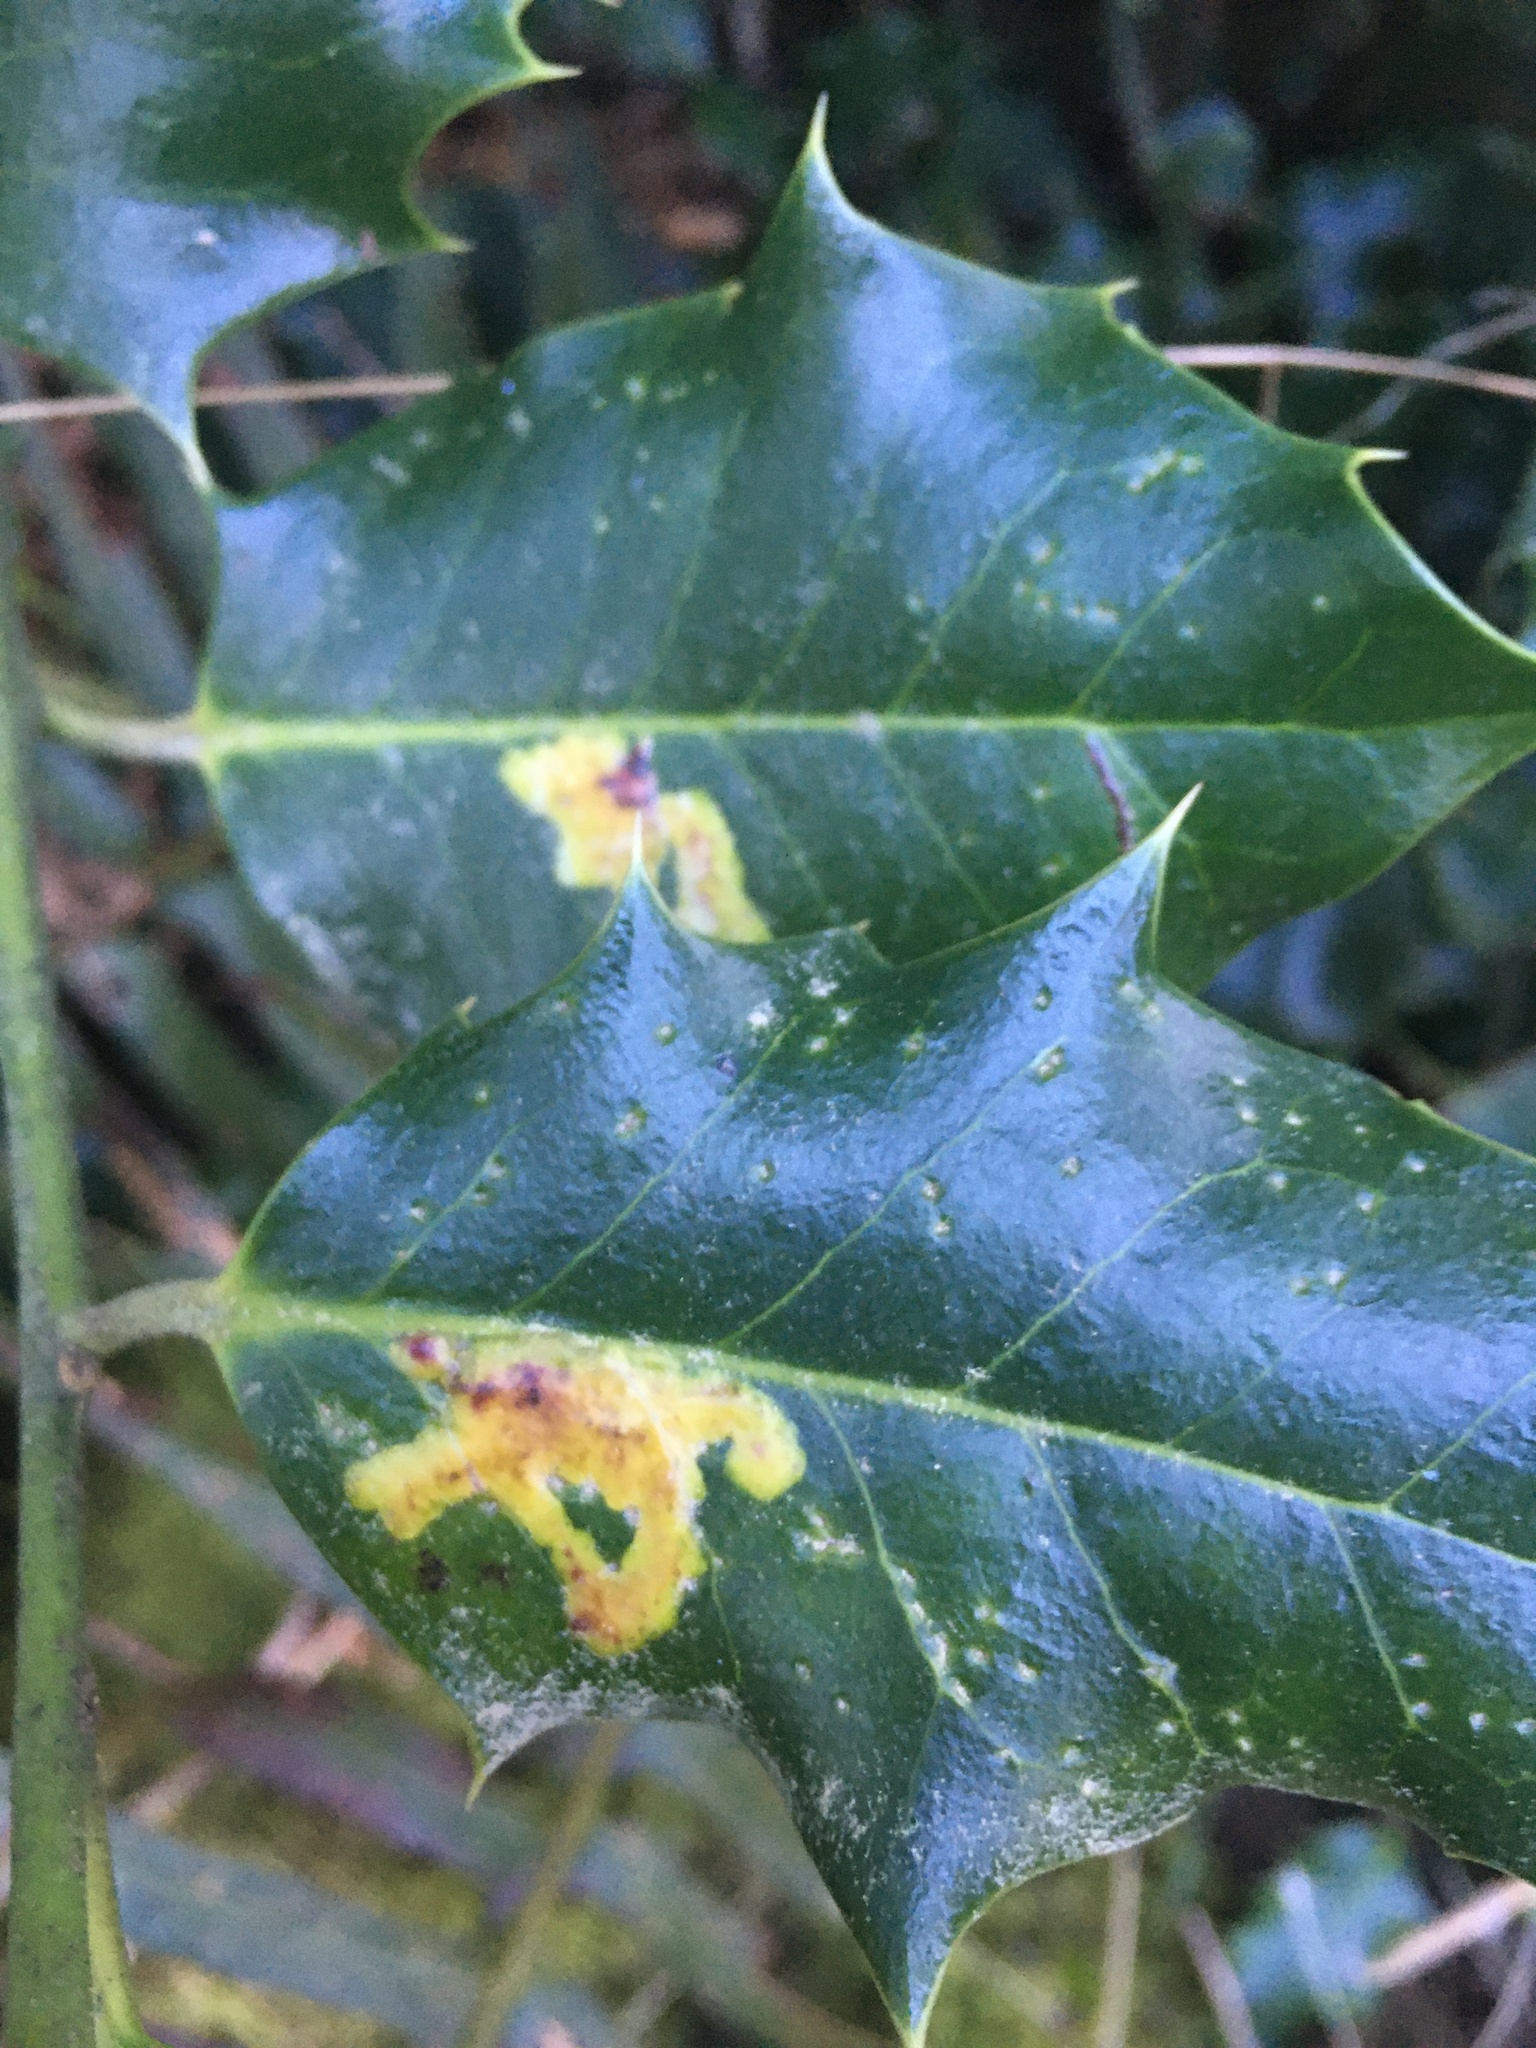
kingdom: Animalia
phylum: Arthropoda
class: Insecta
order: Diptera
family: Agromyzidae
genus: Phytomyza
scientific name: Phytomyza ilicis
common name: Holly leafminer
